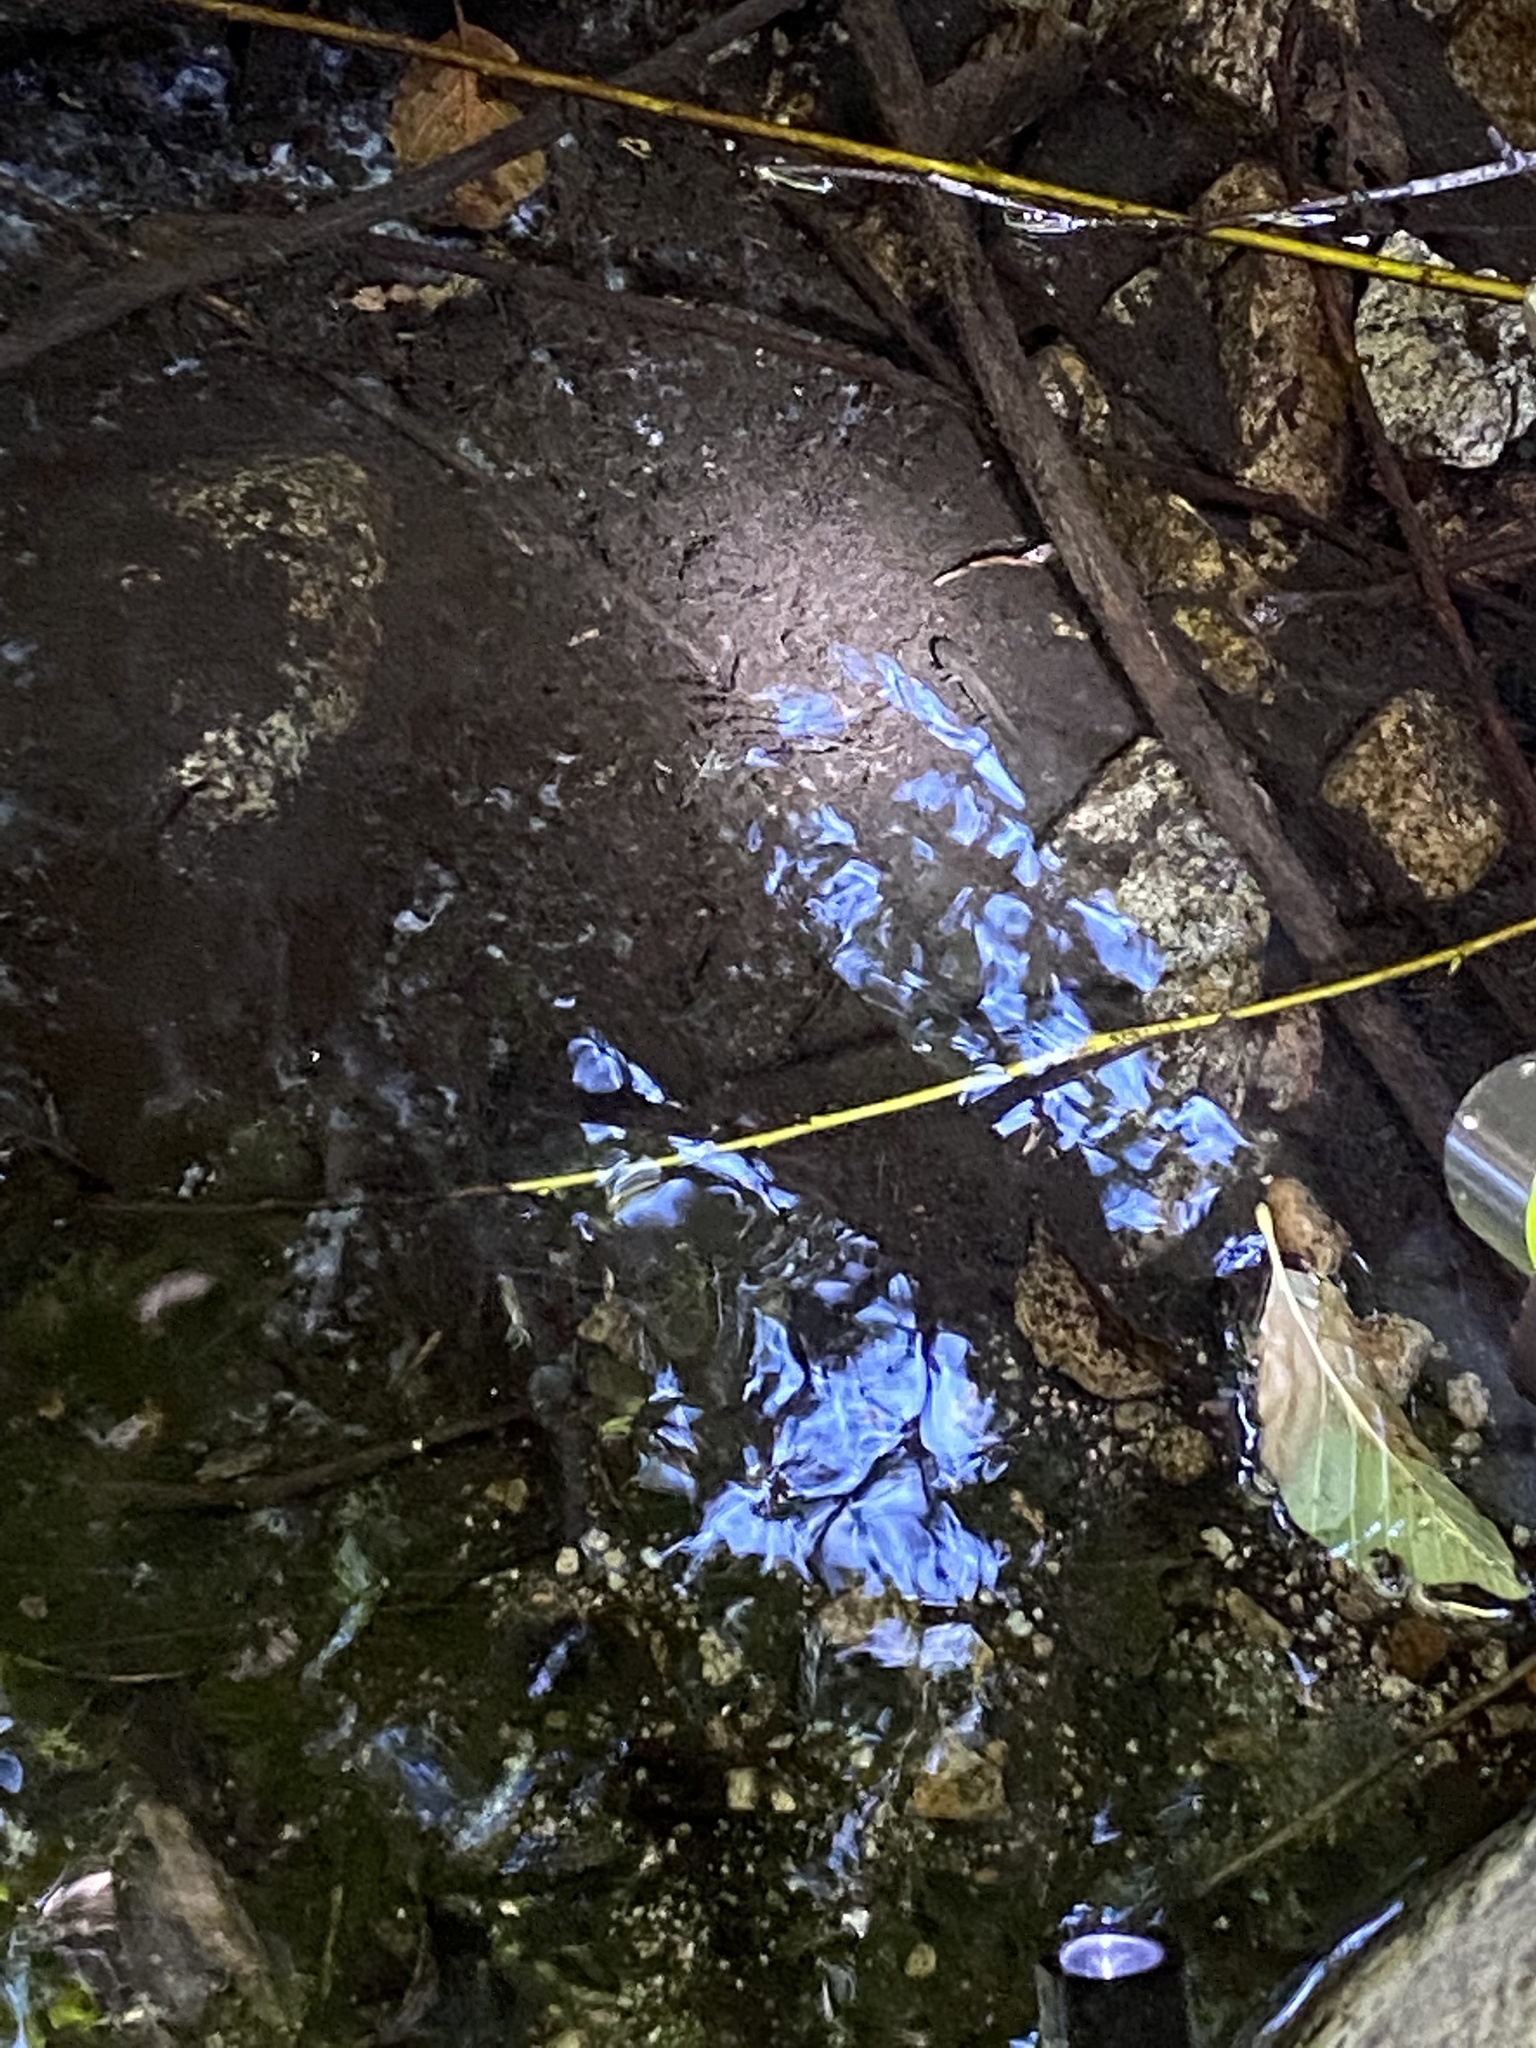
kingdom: Animalia
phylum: Chordata
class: Amphibia
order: Caudata
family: Salamandridae
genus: Taricha
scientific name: Taricha torosa
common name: California newt
